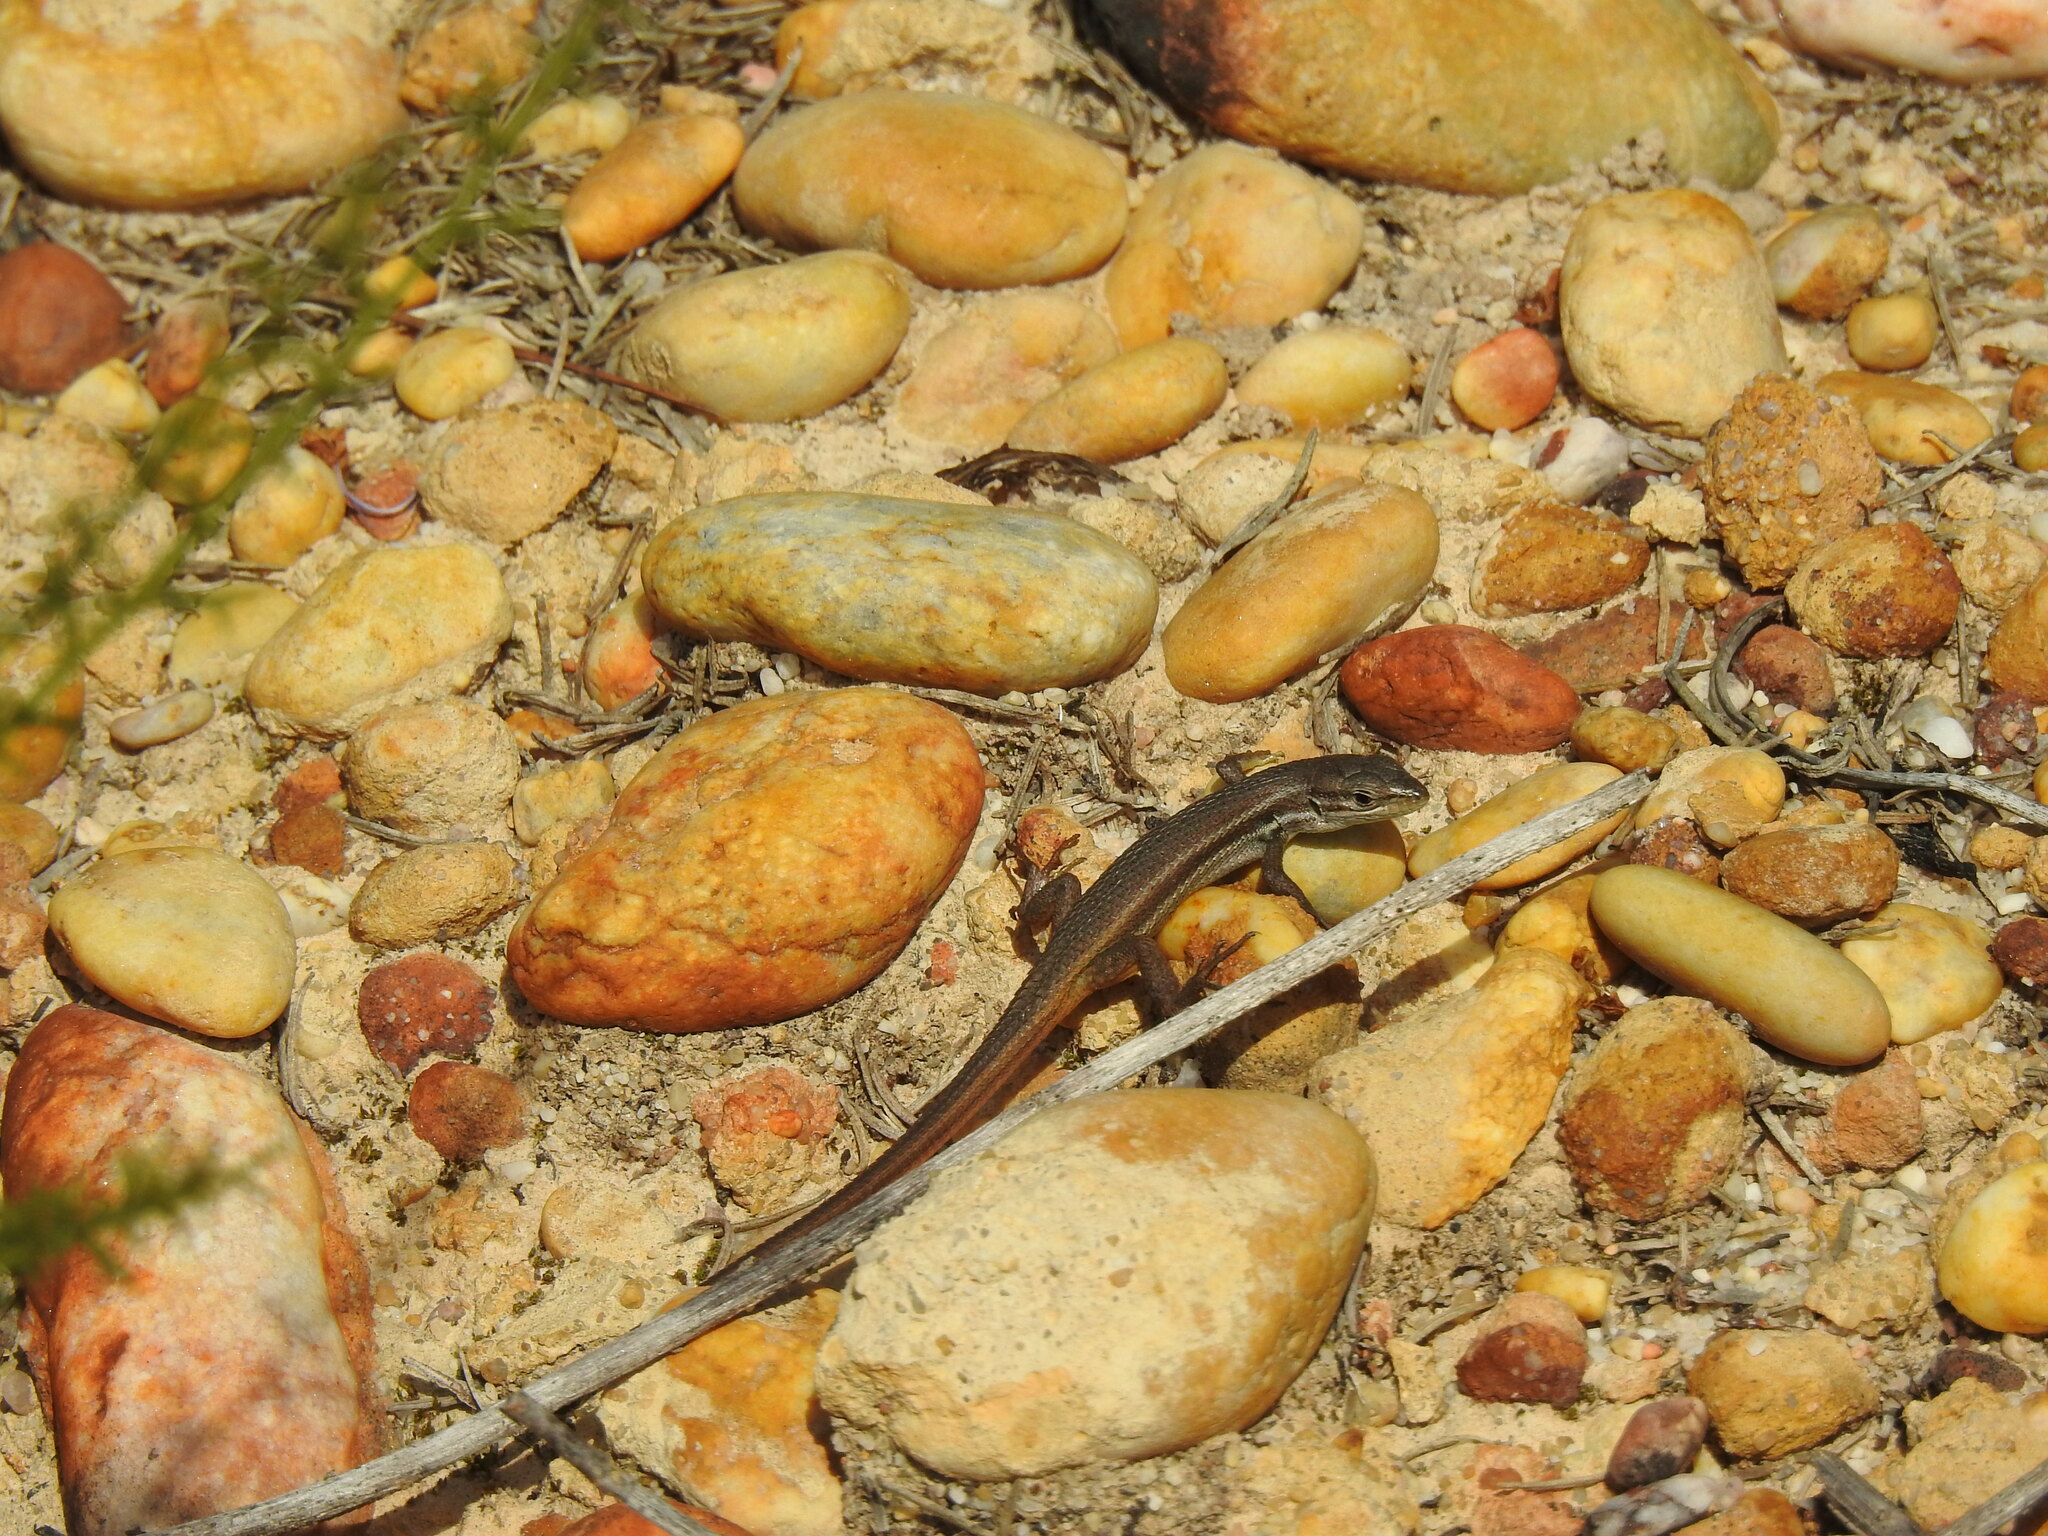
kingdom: Animalia
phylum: Chordata
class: Squamata
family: Lacertidae
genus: Psammodromus
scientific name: Psammodromus algirus
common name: Algerian psammodromus
